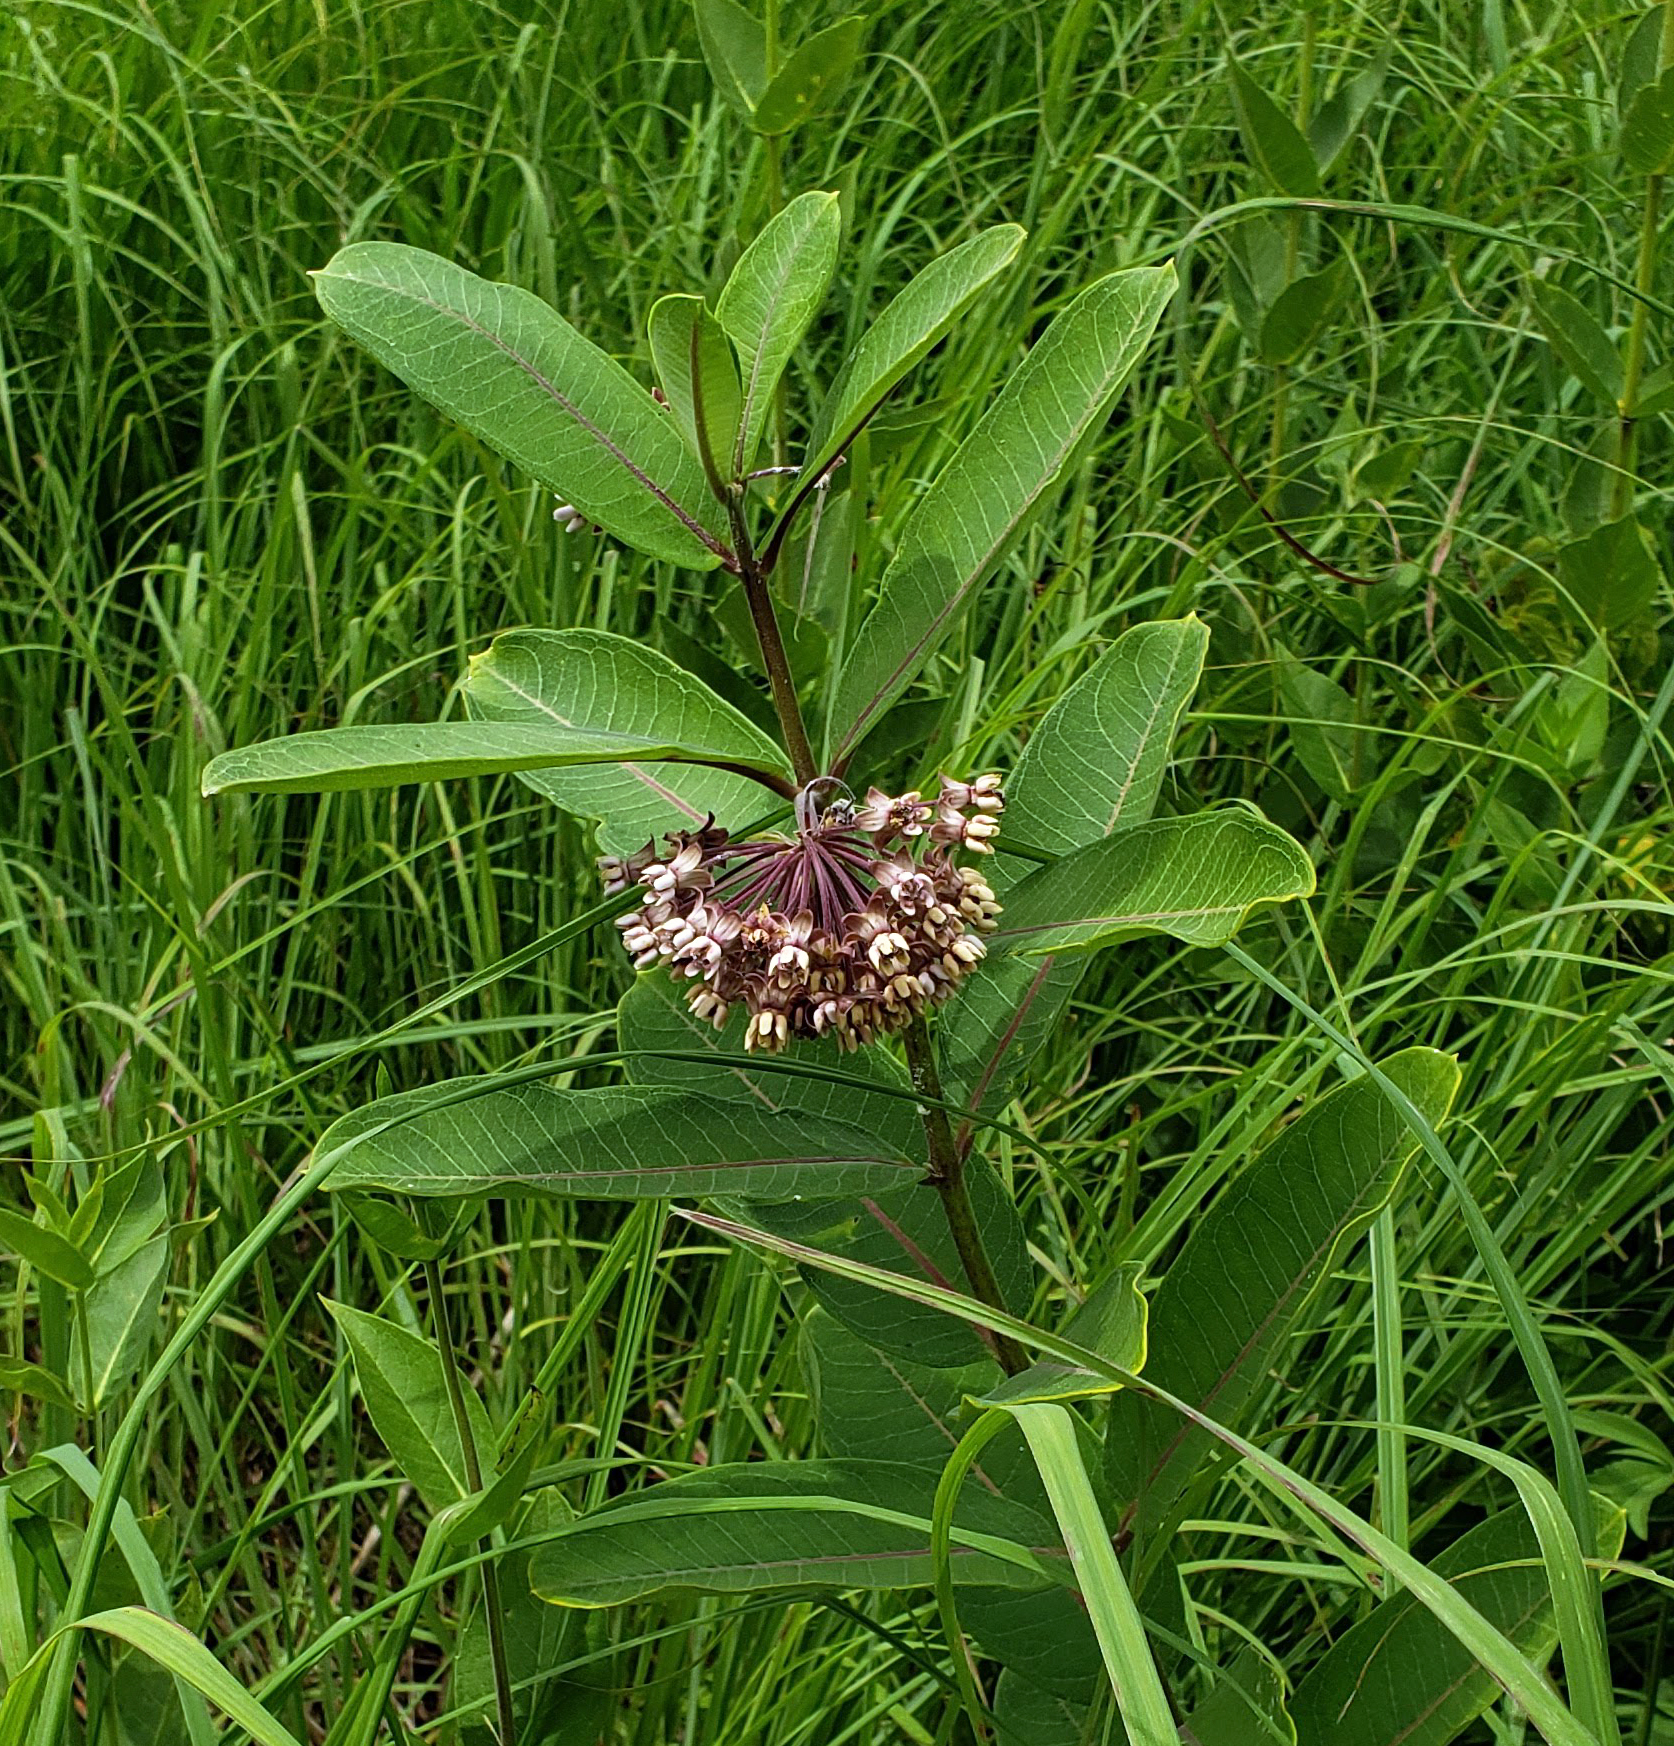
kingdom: Plantae
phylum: Tracheophyta
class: Magnoliopsida
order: Gentianales
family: Apocynaceae
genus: Asclepias
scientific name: Asclepias syriaca
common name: Common milkweed
